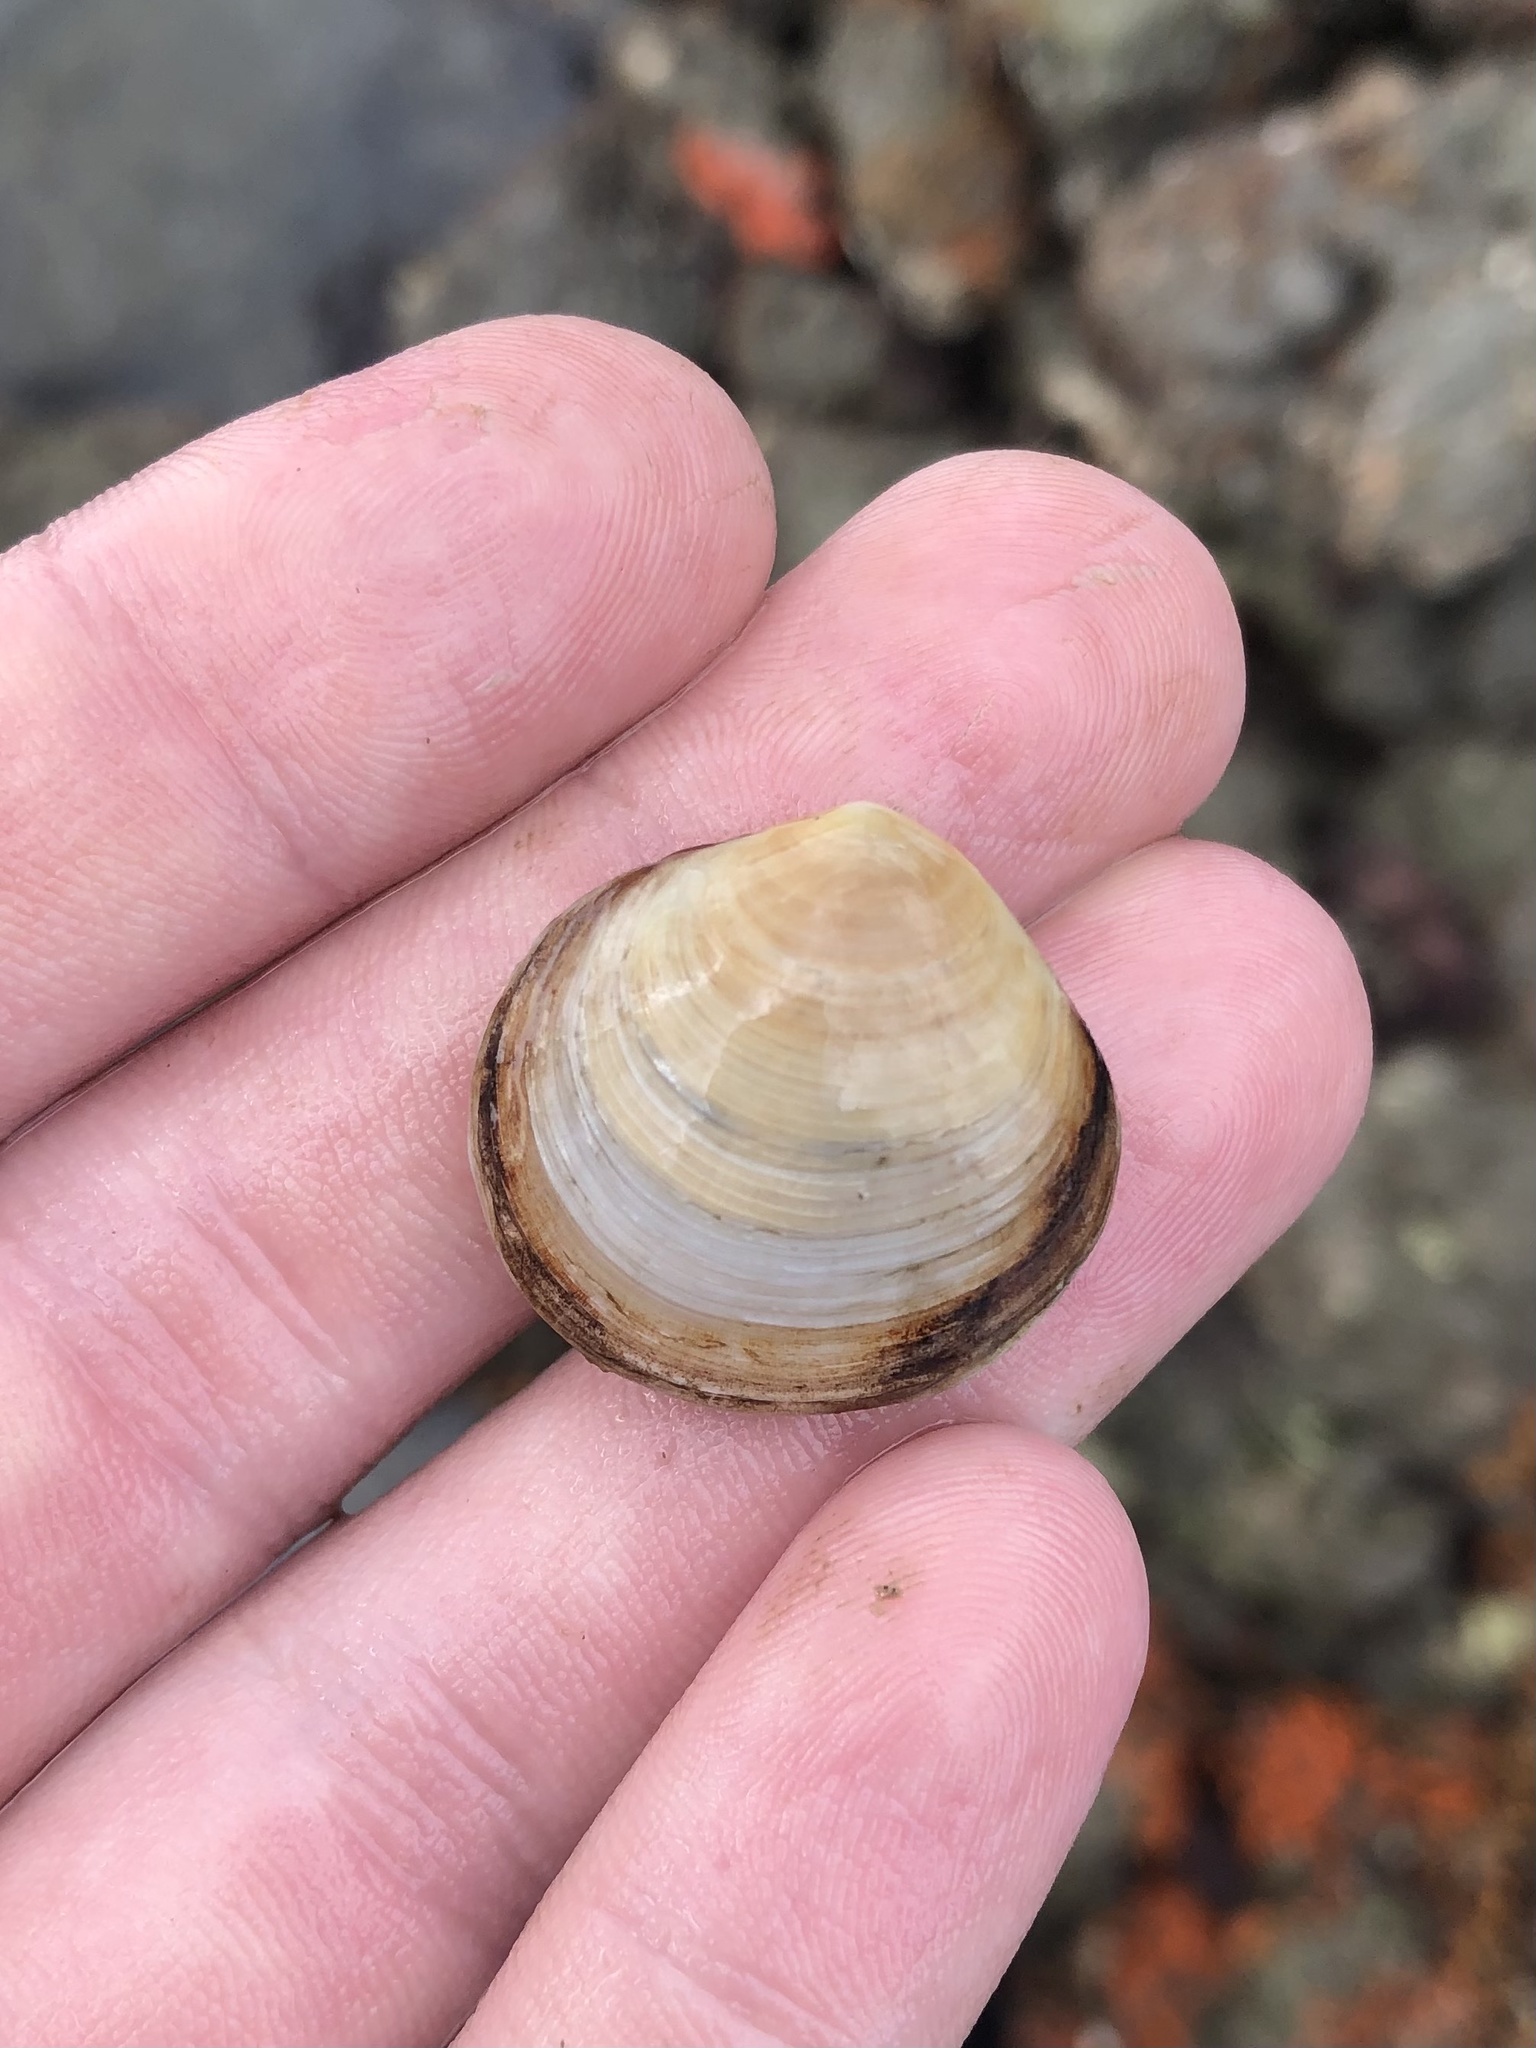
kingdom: Animalia
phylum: Mollusca
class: Bivalvia
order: Cardiida
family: Semelidae
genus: Semele
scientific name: Semele proficua
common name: White atlantic semele
